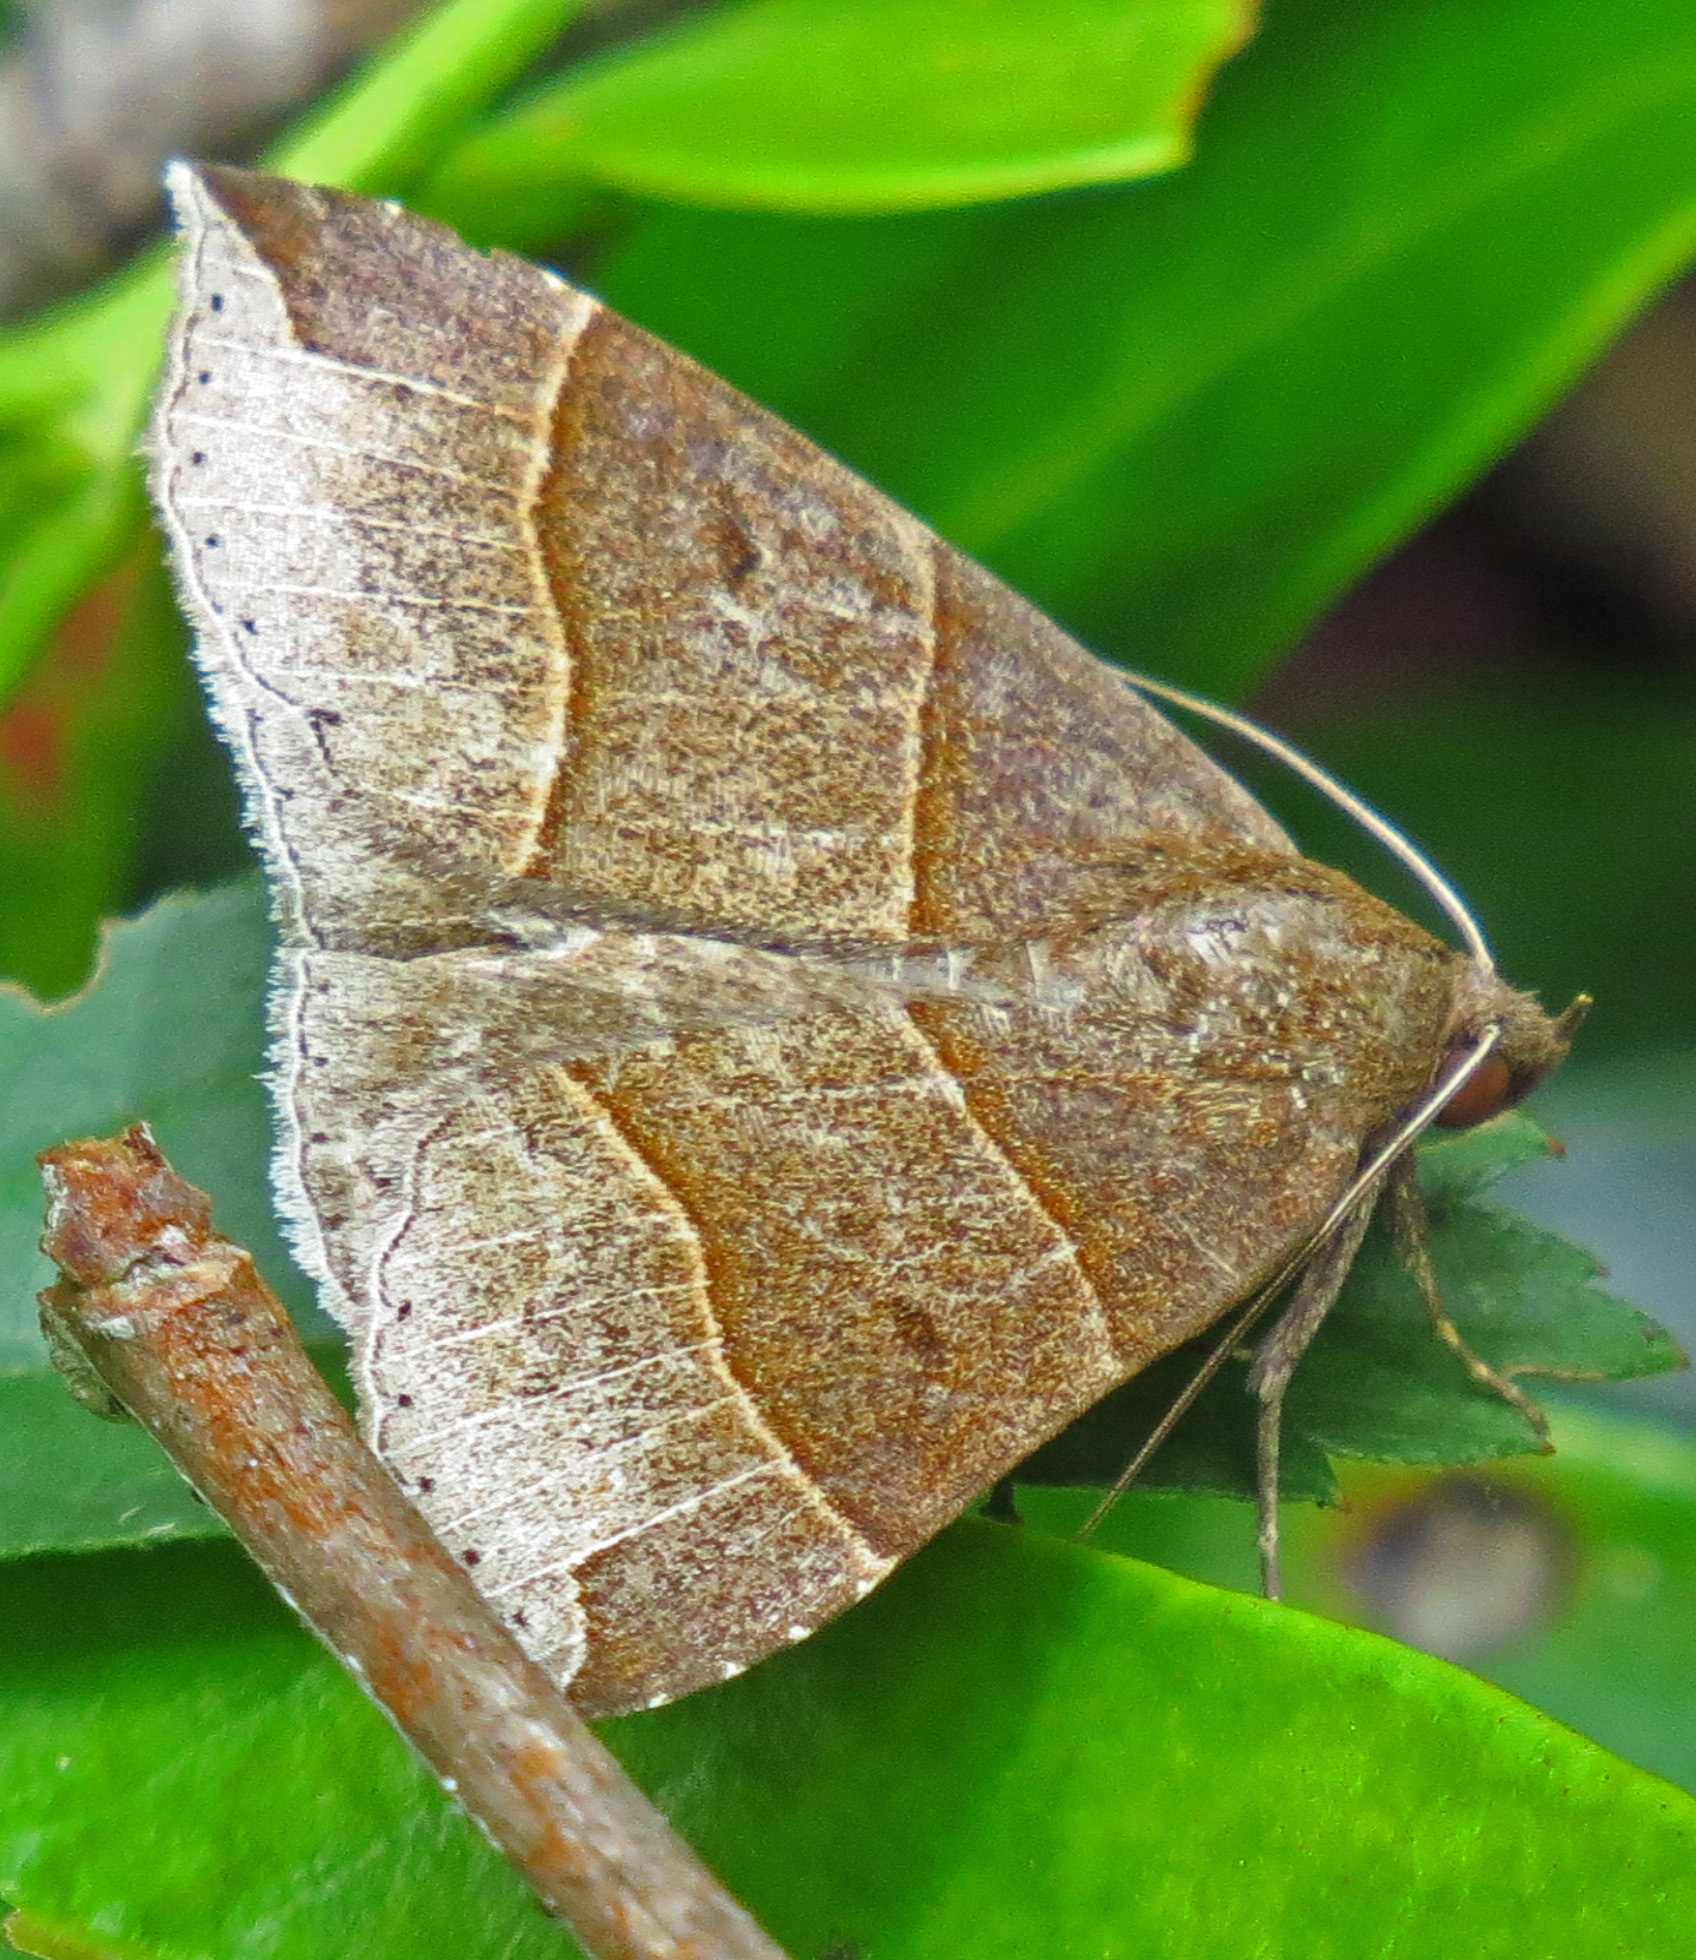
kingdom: Animalia
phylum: Arthropoda
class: Insecta
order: Lepidoptera
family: Erebidae
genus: Parallelia
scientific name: Parallelia bistriaris
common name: Maple looper moth
